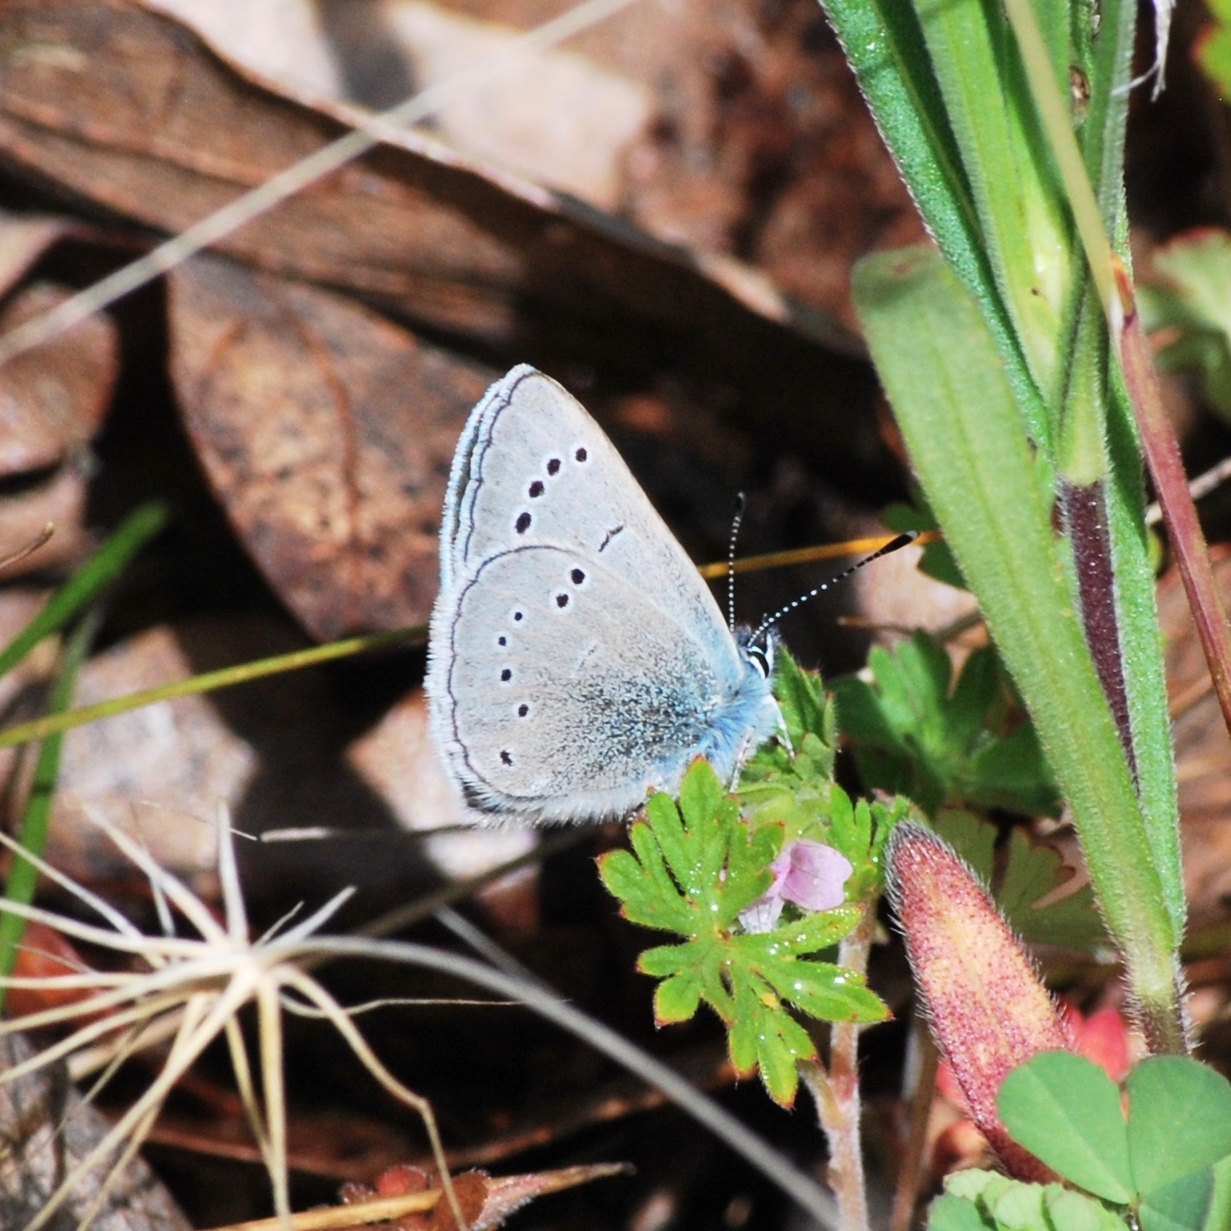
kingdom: Animalia
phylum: Arthropoda
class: Insecta
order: Lepidoptera
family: Lycaenidae
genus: Glaucopsyche
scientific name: Glaucopsyche lygdamus
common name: Silvery blue
